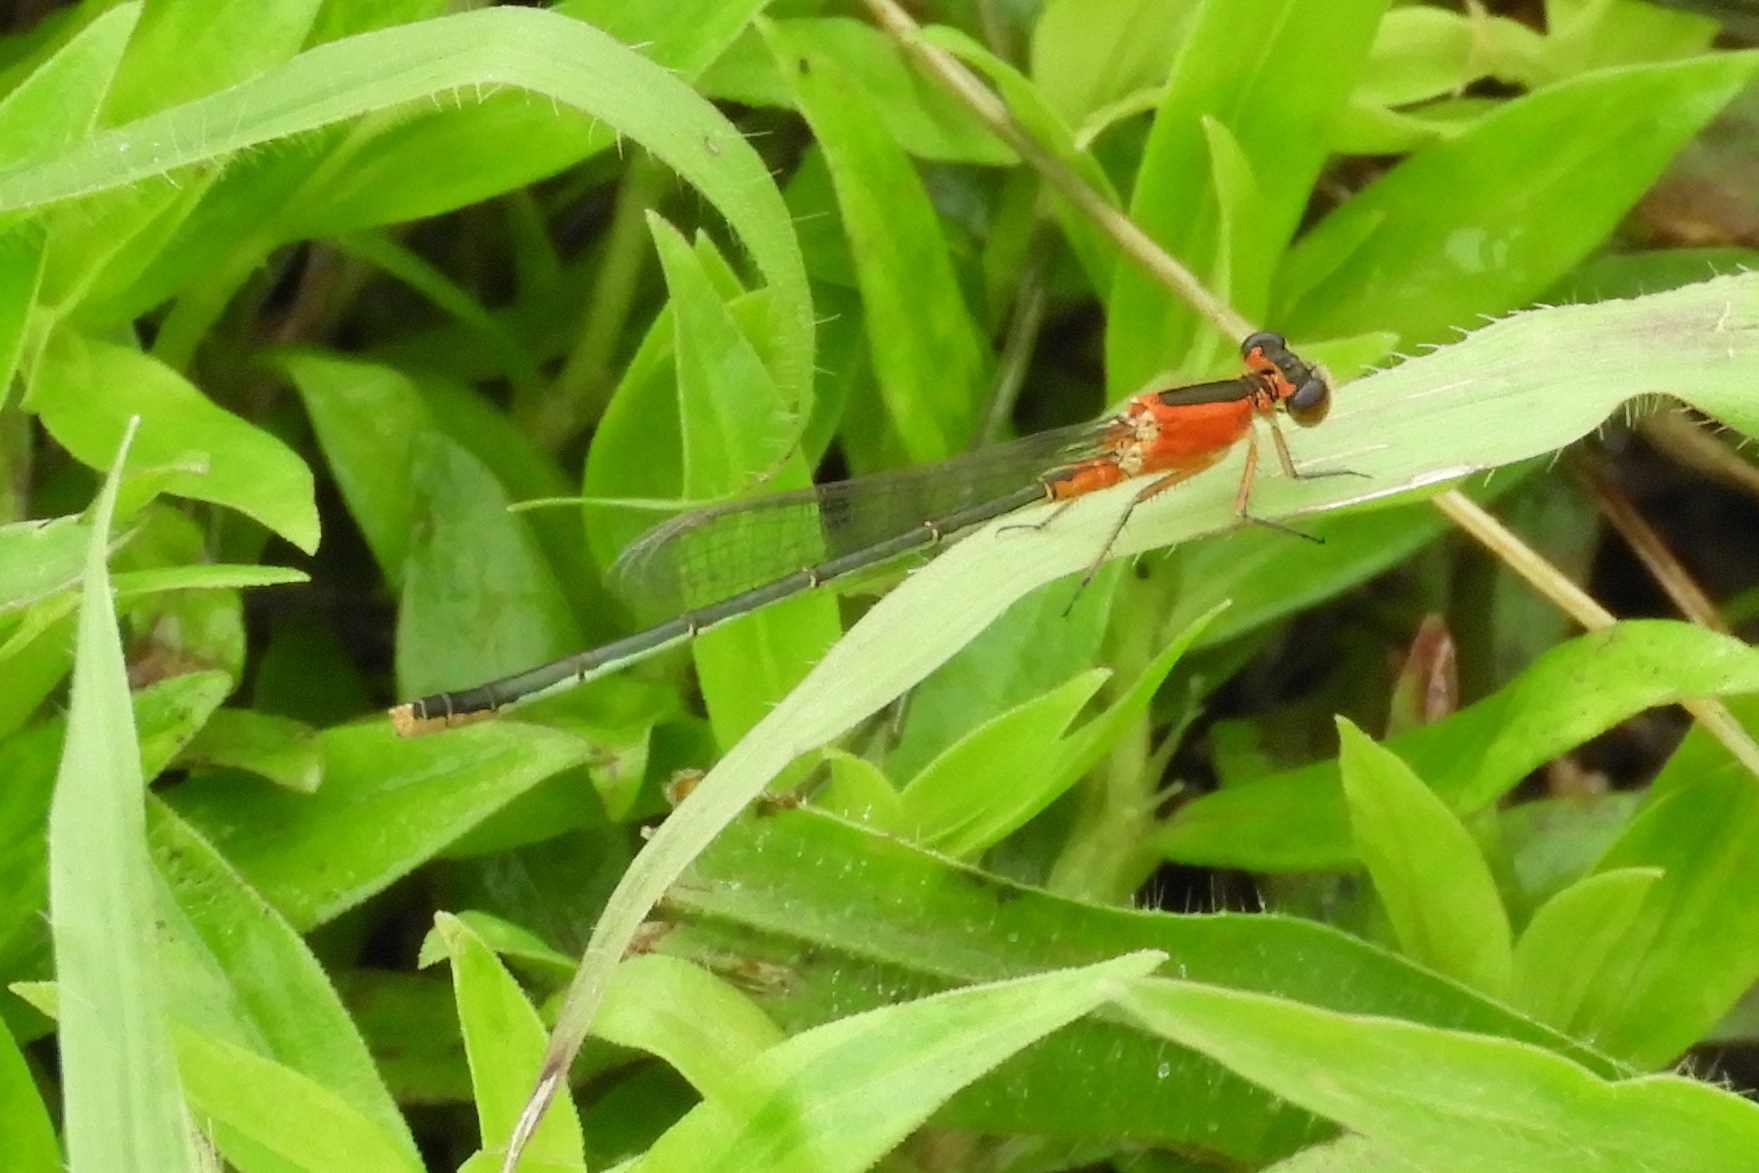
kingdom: Animalia
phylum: Arthropoda
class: Insecta
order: Odonata
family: Coenagrionidae
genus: Ischnura
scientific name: Ischnura ramburii
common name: Rambur's forktail
